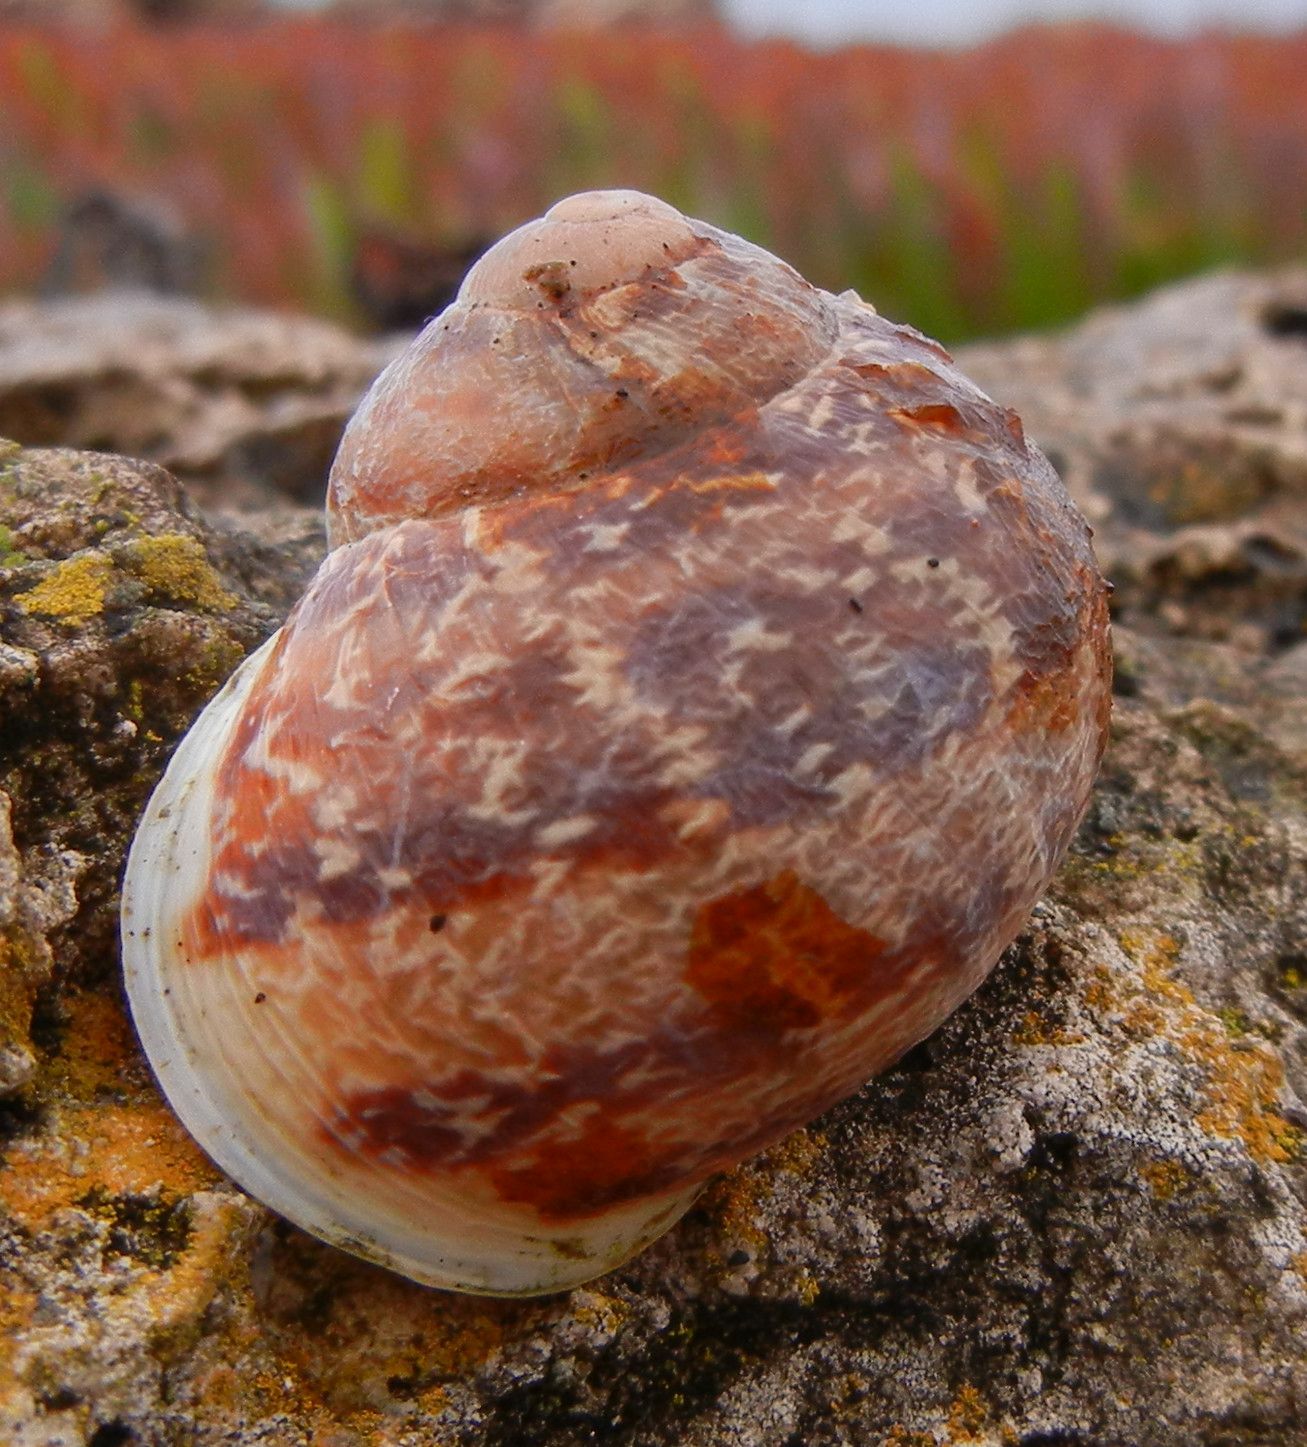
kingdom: Animalia
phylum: Mollusca
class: Gastropoda
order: Stylommatophora
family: Helicidae
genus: Cornu
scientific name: Cornu aspersum
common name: Brown garden snail
